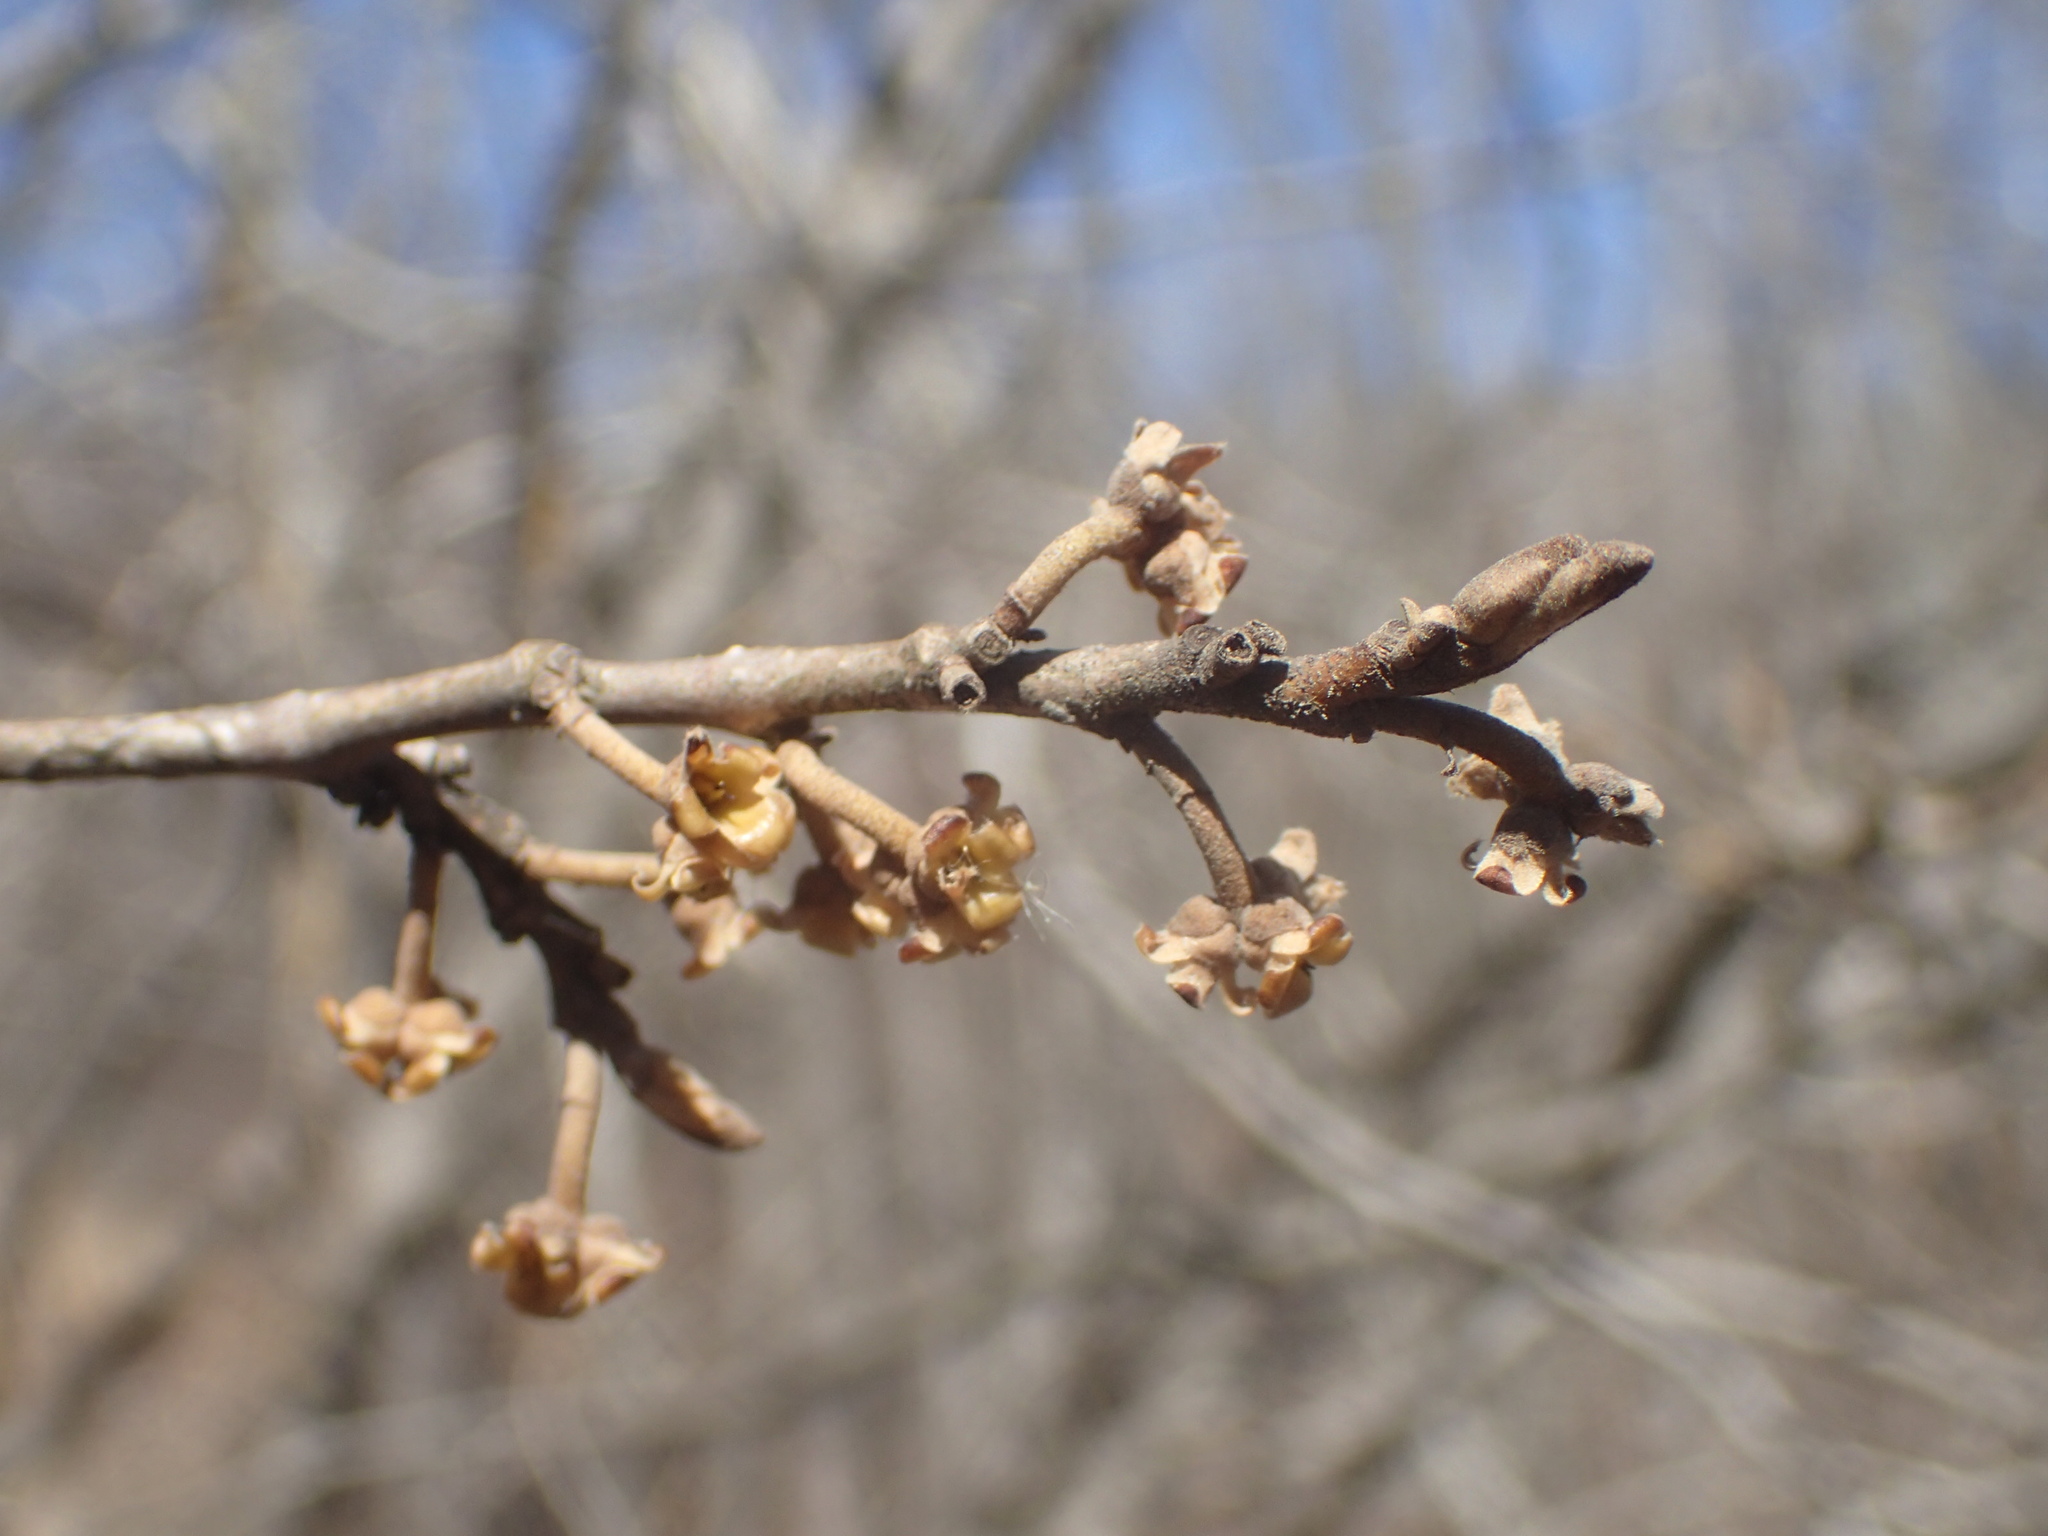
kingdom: Plantae
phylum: Tracheophyta
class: Magnoliopsida
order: Saxifragales
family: Hamamelidaceae
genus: Hamamelis
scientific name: Hamamelis virginiana
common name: Witch-hazel
